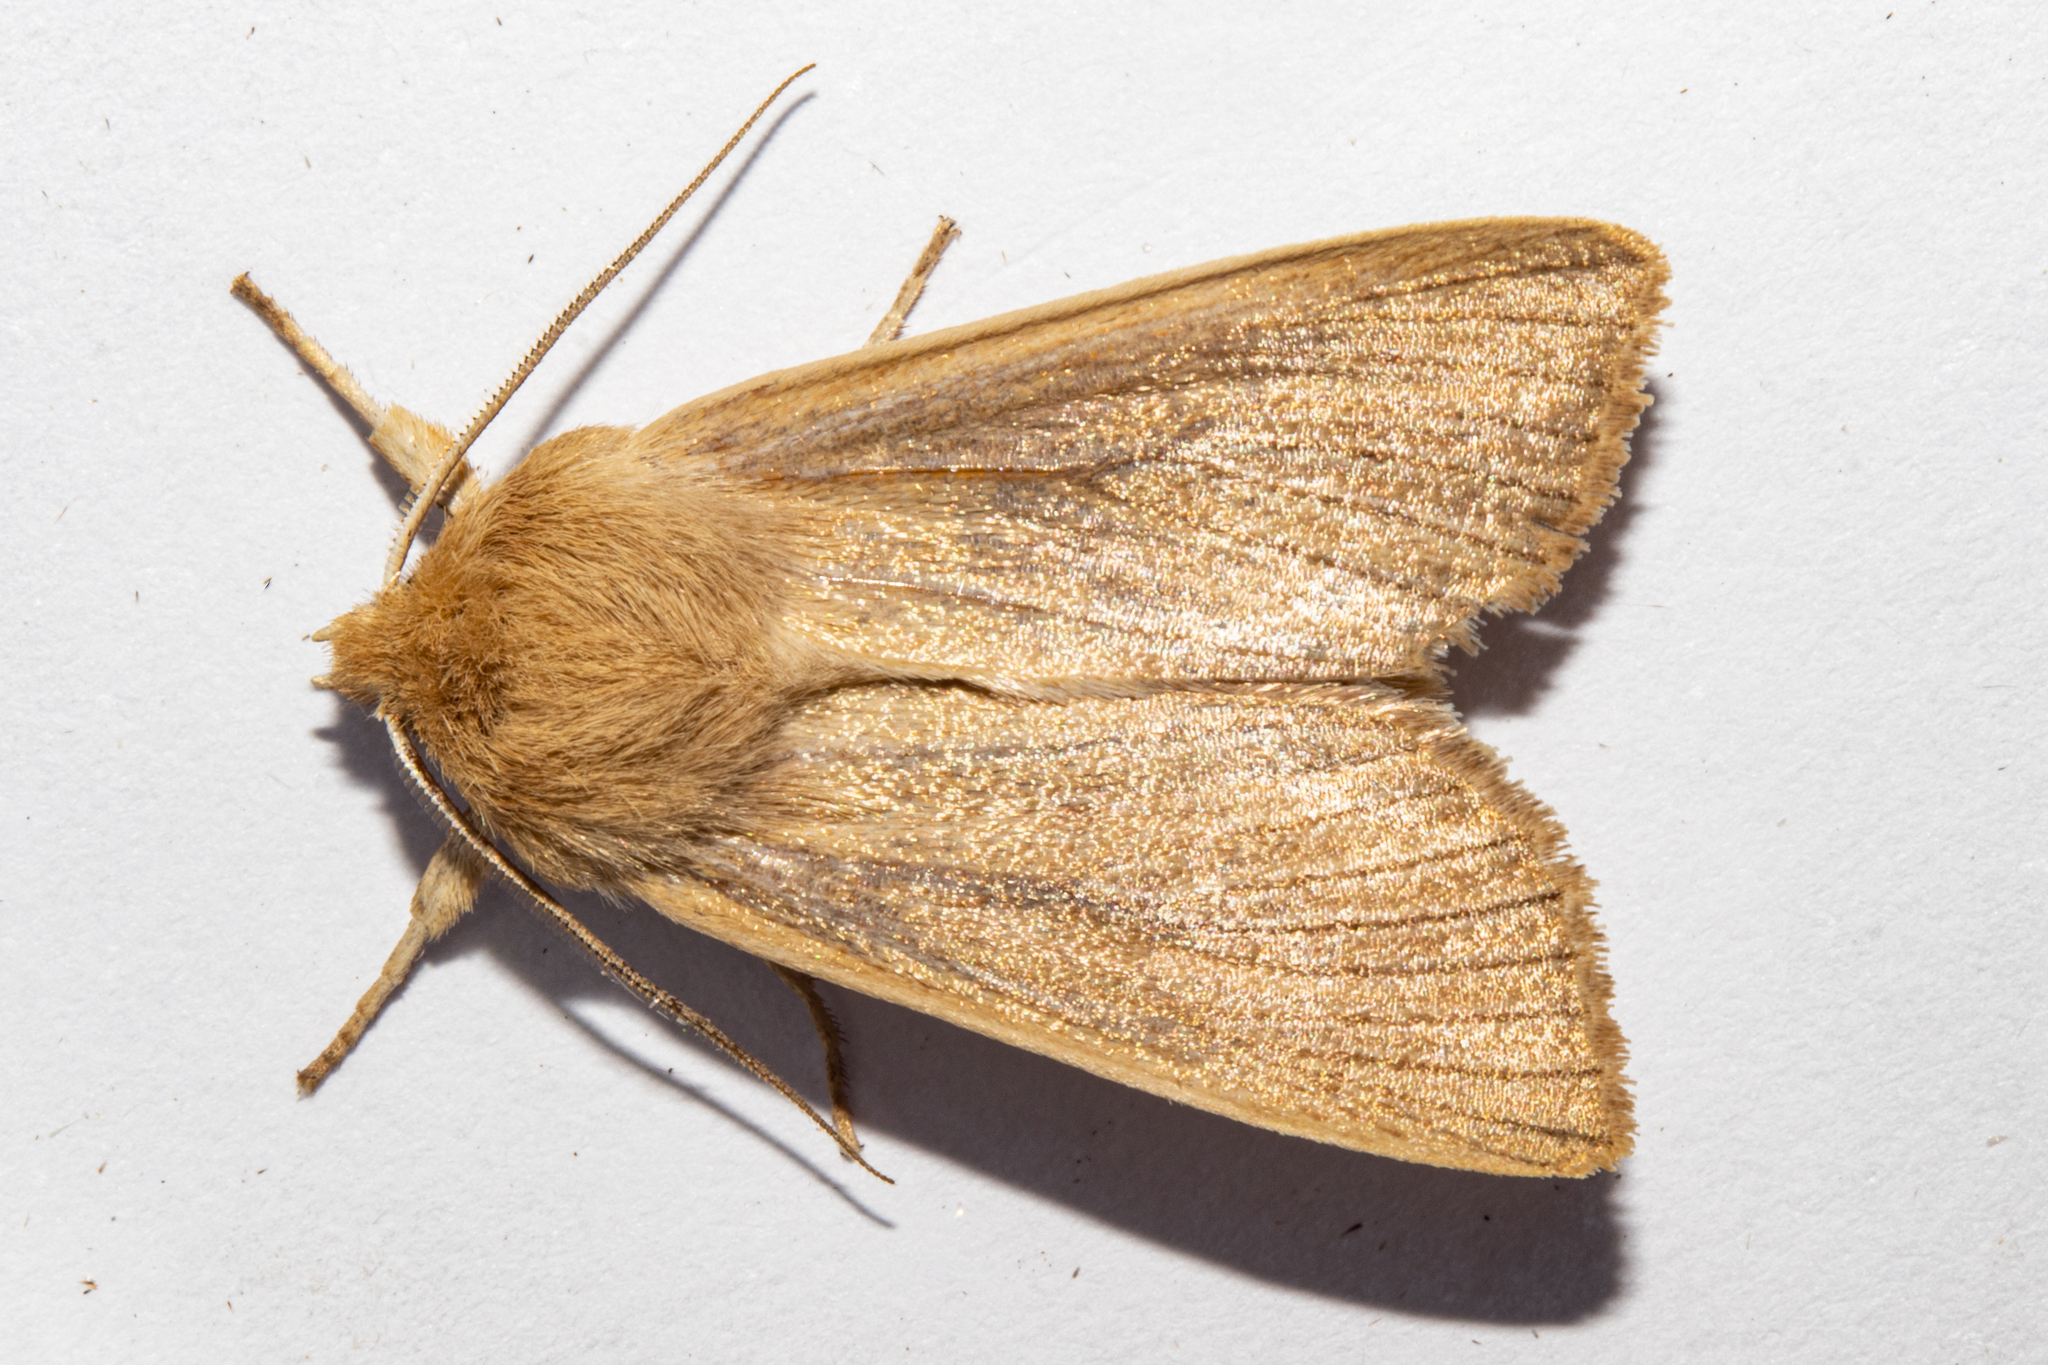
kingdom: Animalia
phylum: Arthropoda
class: Insecta
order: Lepidoptera
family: Noctuidae
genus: Ichneutica
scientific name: Ichneutica arotis
